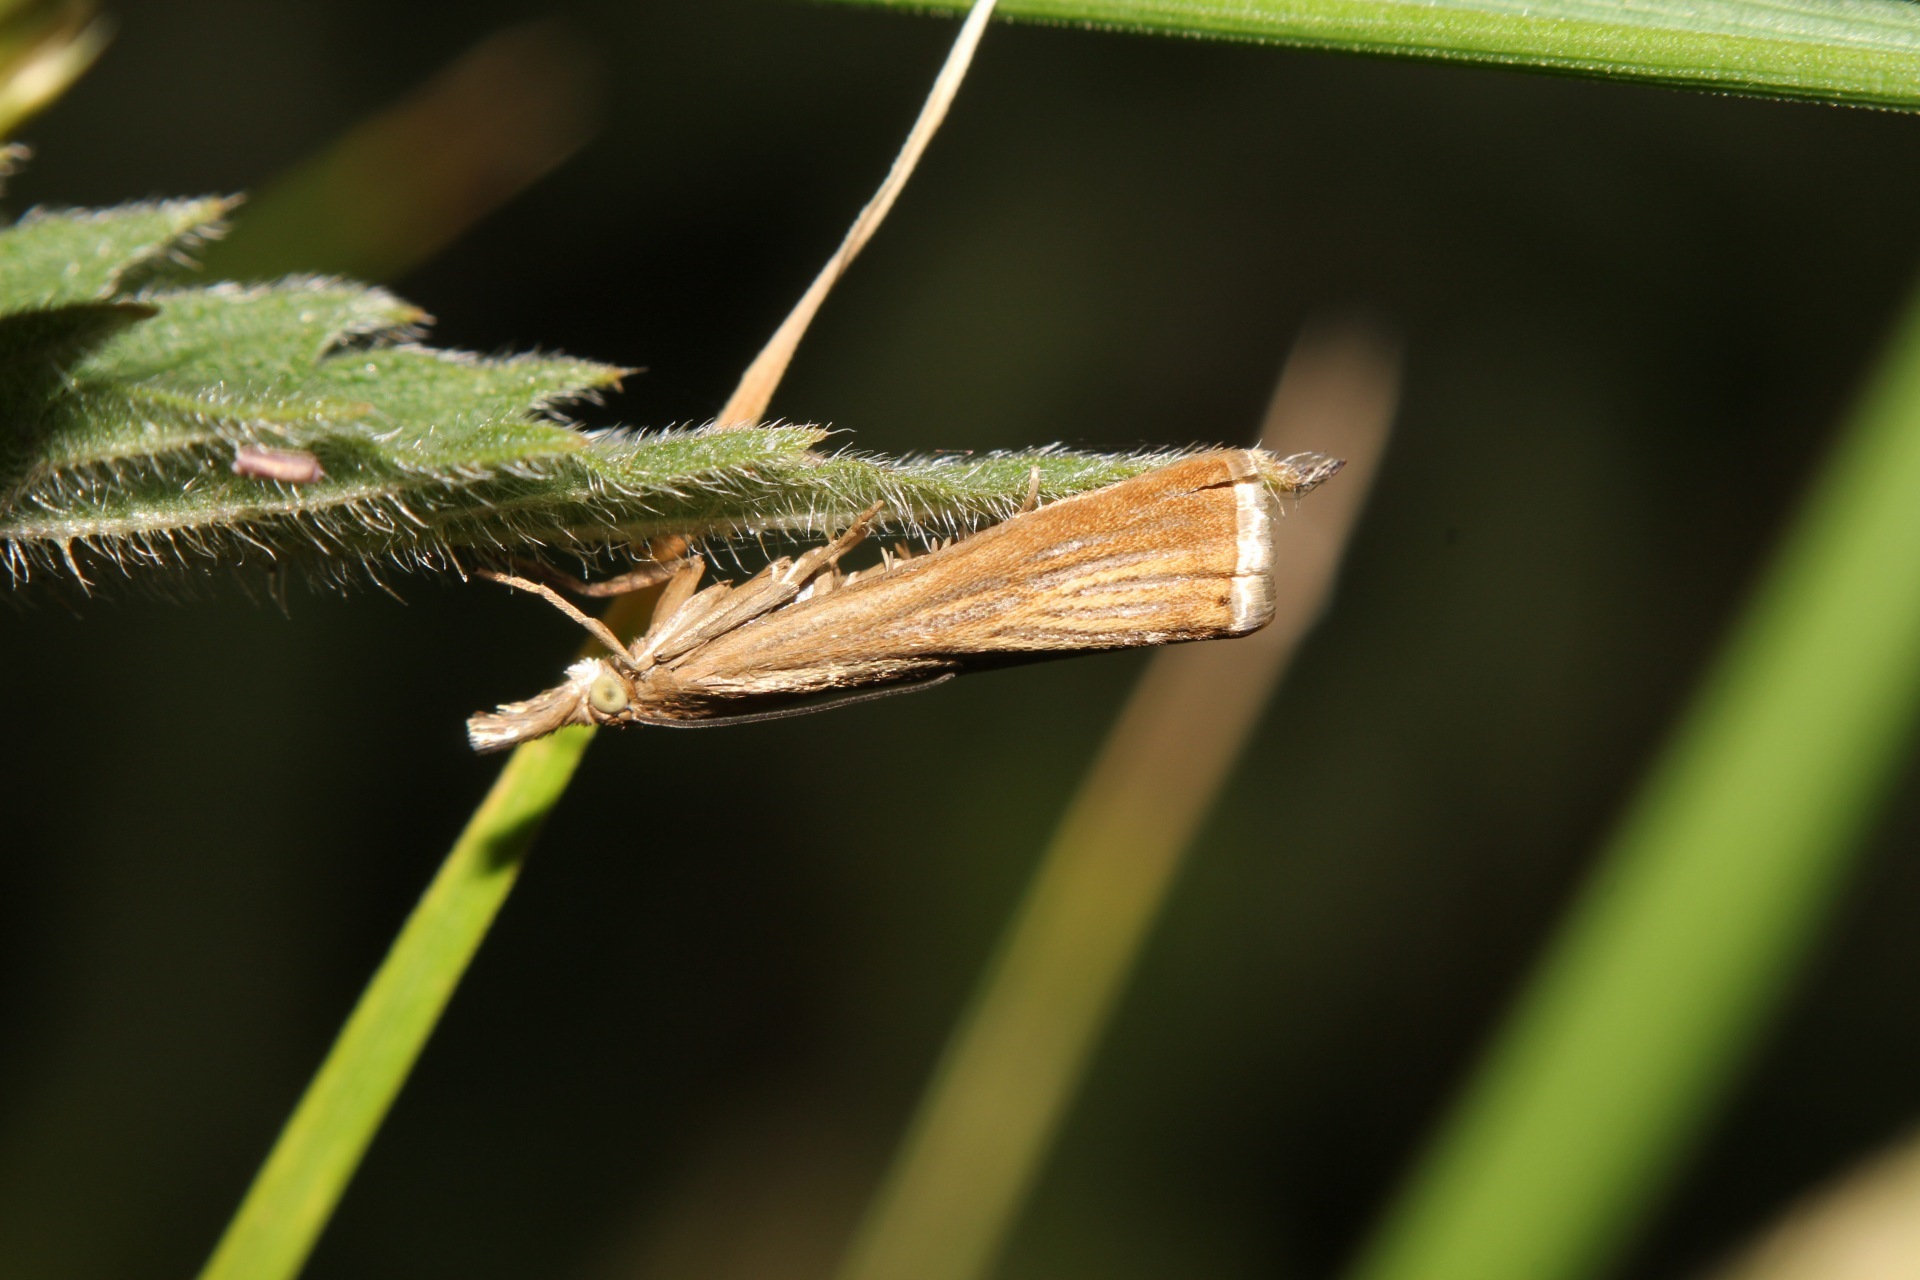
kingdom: Animalia
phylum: Arthropoda
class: Insecta
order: Lepidoptera
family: Crambidae
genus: Chrysoteuchia
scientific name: Chrysoteuchia culmella
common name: Garden grass-veneer
